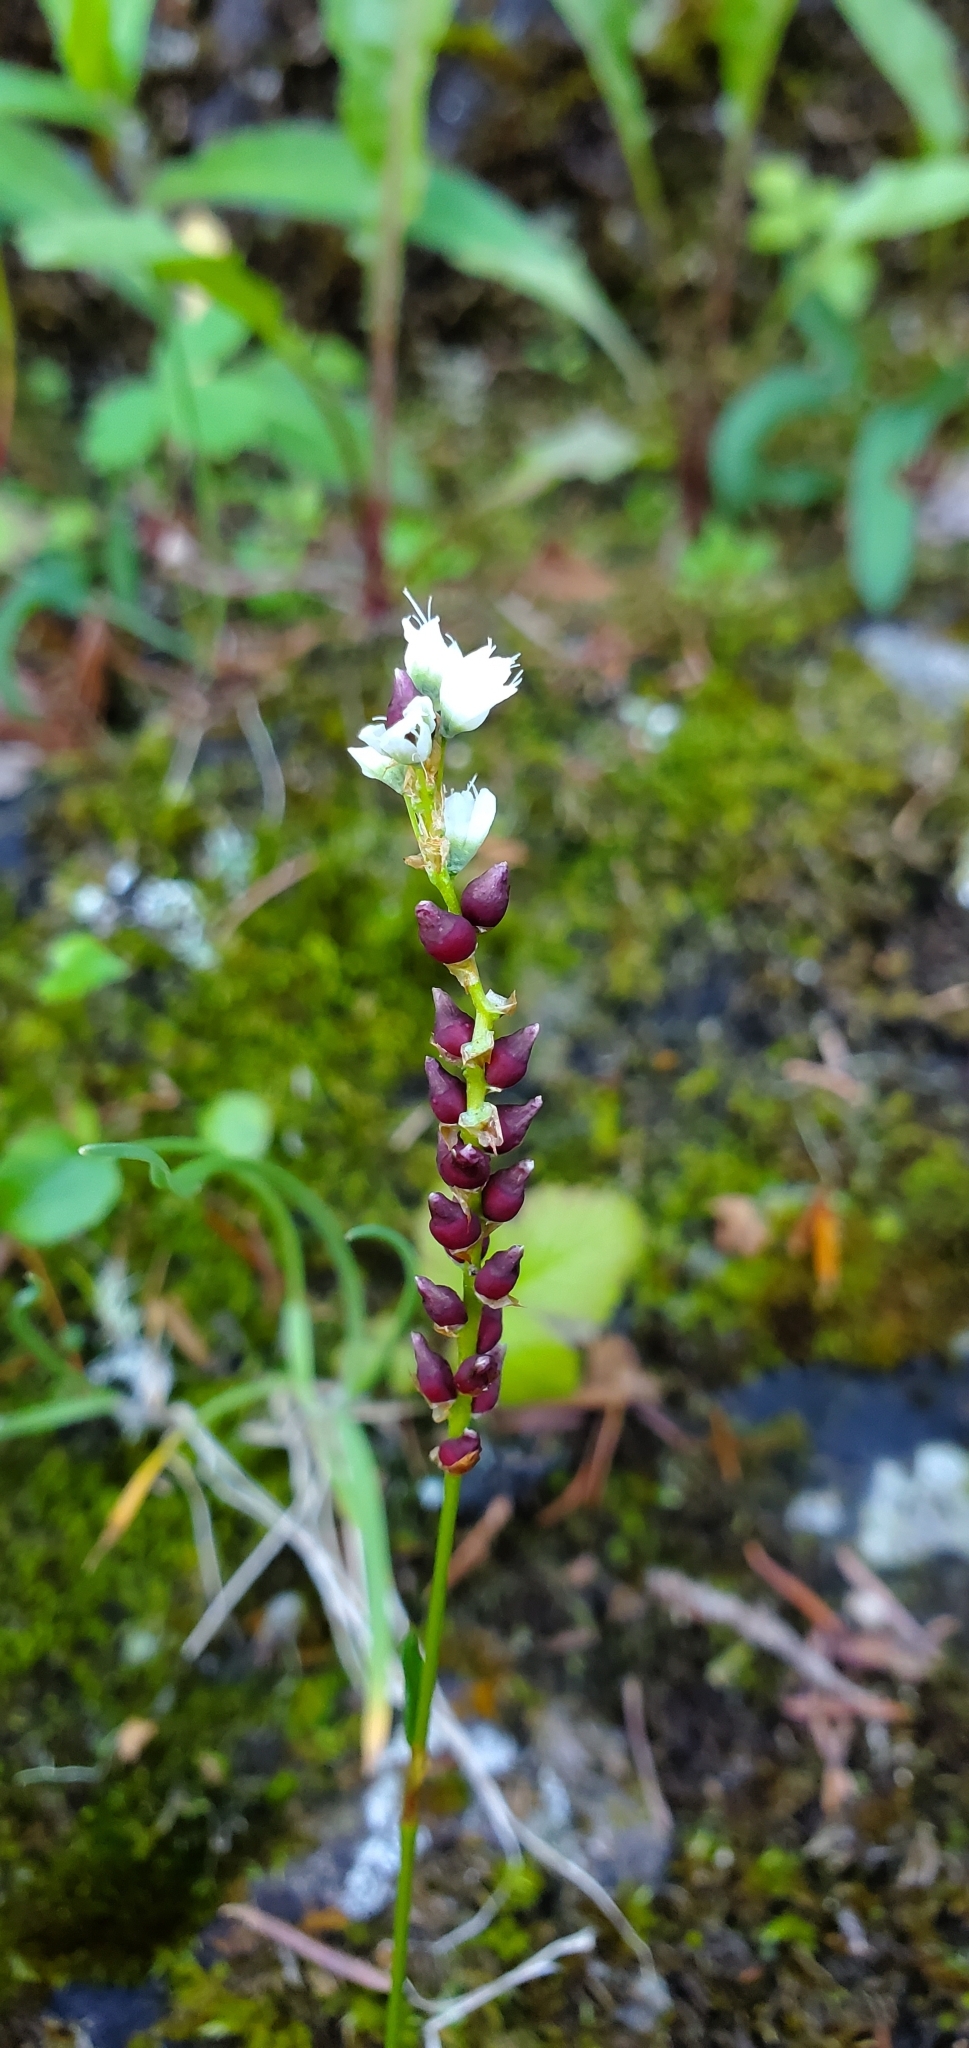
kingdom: Plantae
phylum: Tracheophyta
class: Magnoliopsida
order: Caryophyllales
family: Polygonaceae
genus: Bistorta
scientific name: Bistorta vivipara
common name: Alpine bistort
